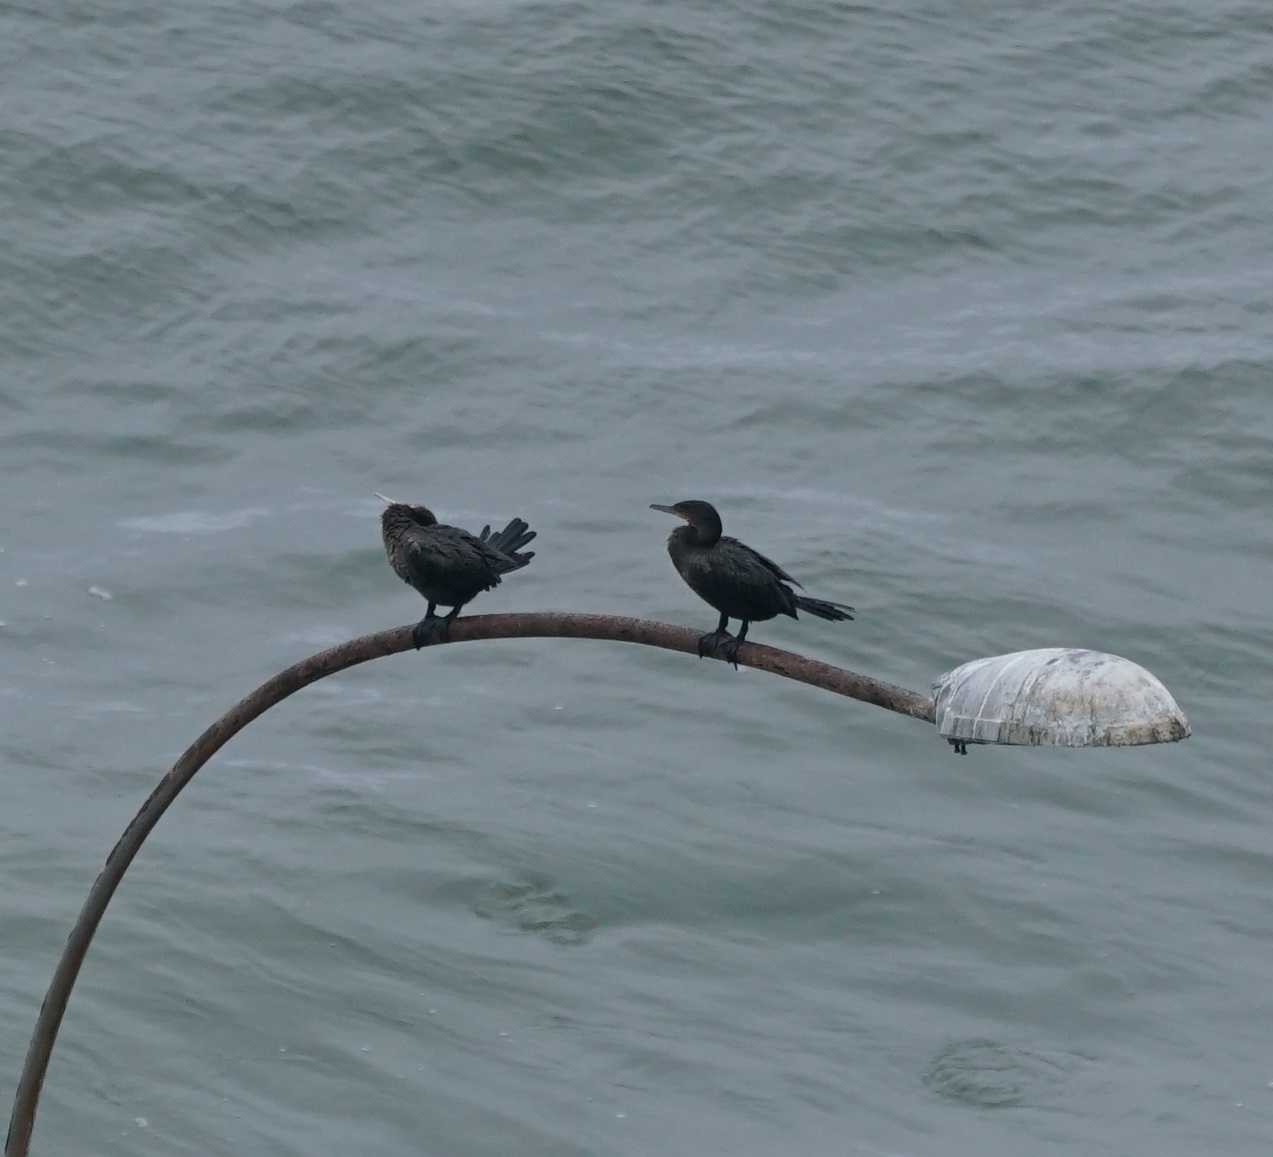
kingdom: Animalia
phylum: Chordata
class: Aves
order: Suliformes
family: Phalacrocoracidae
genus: Phalacrocorax
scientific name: Phalacrocorax brasilianus
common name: Neotropic cormorant
